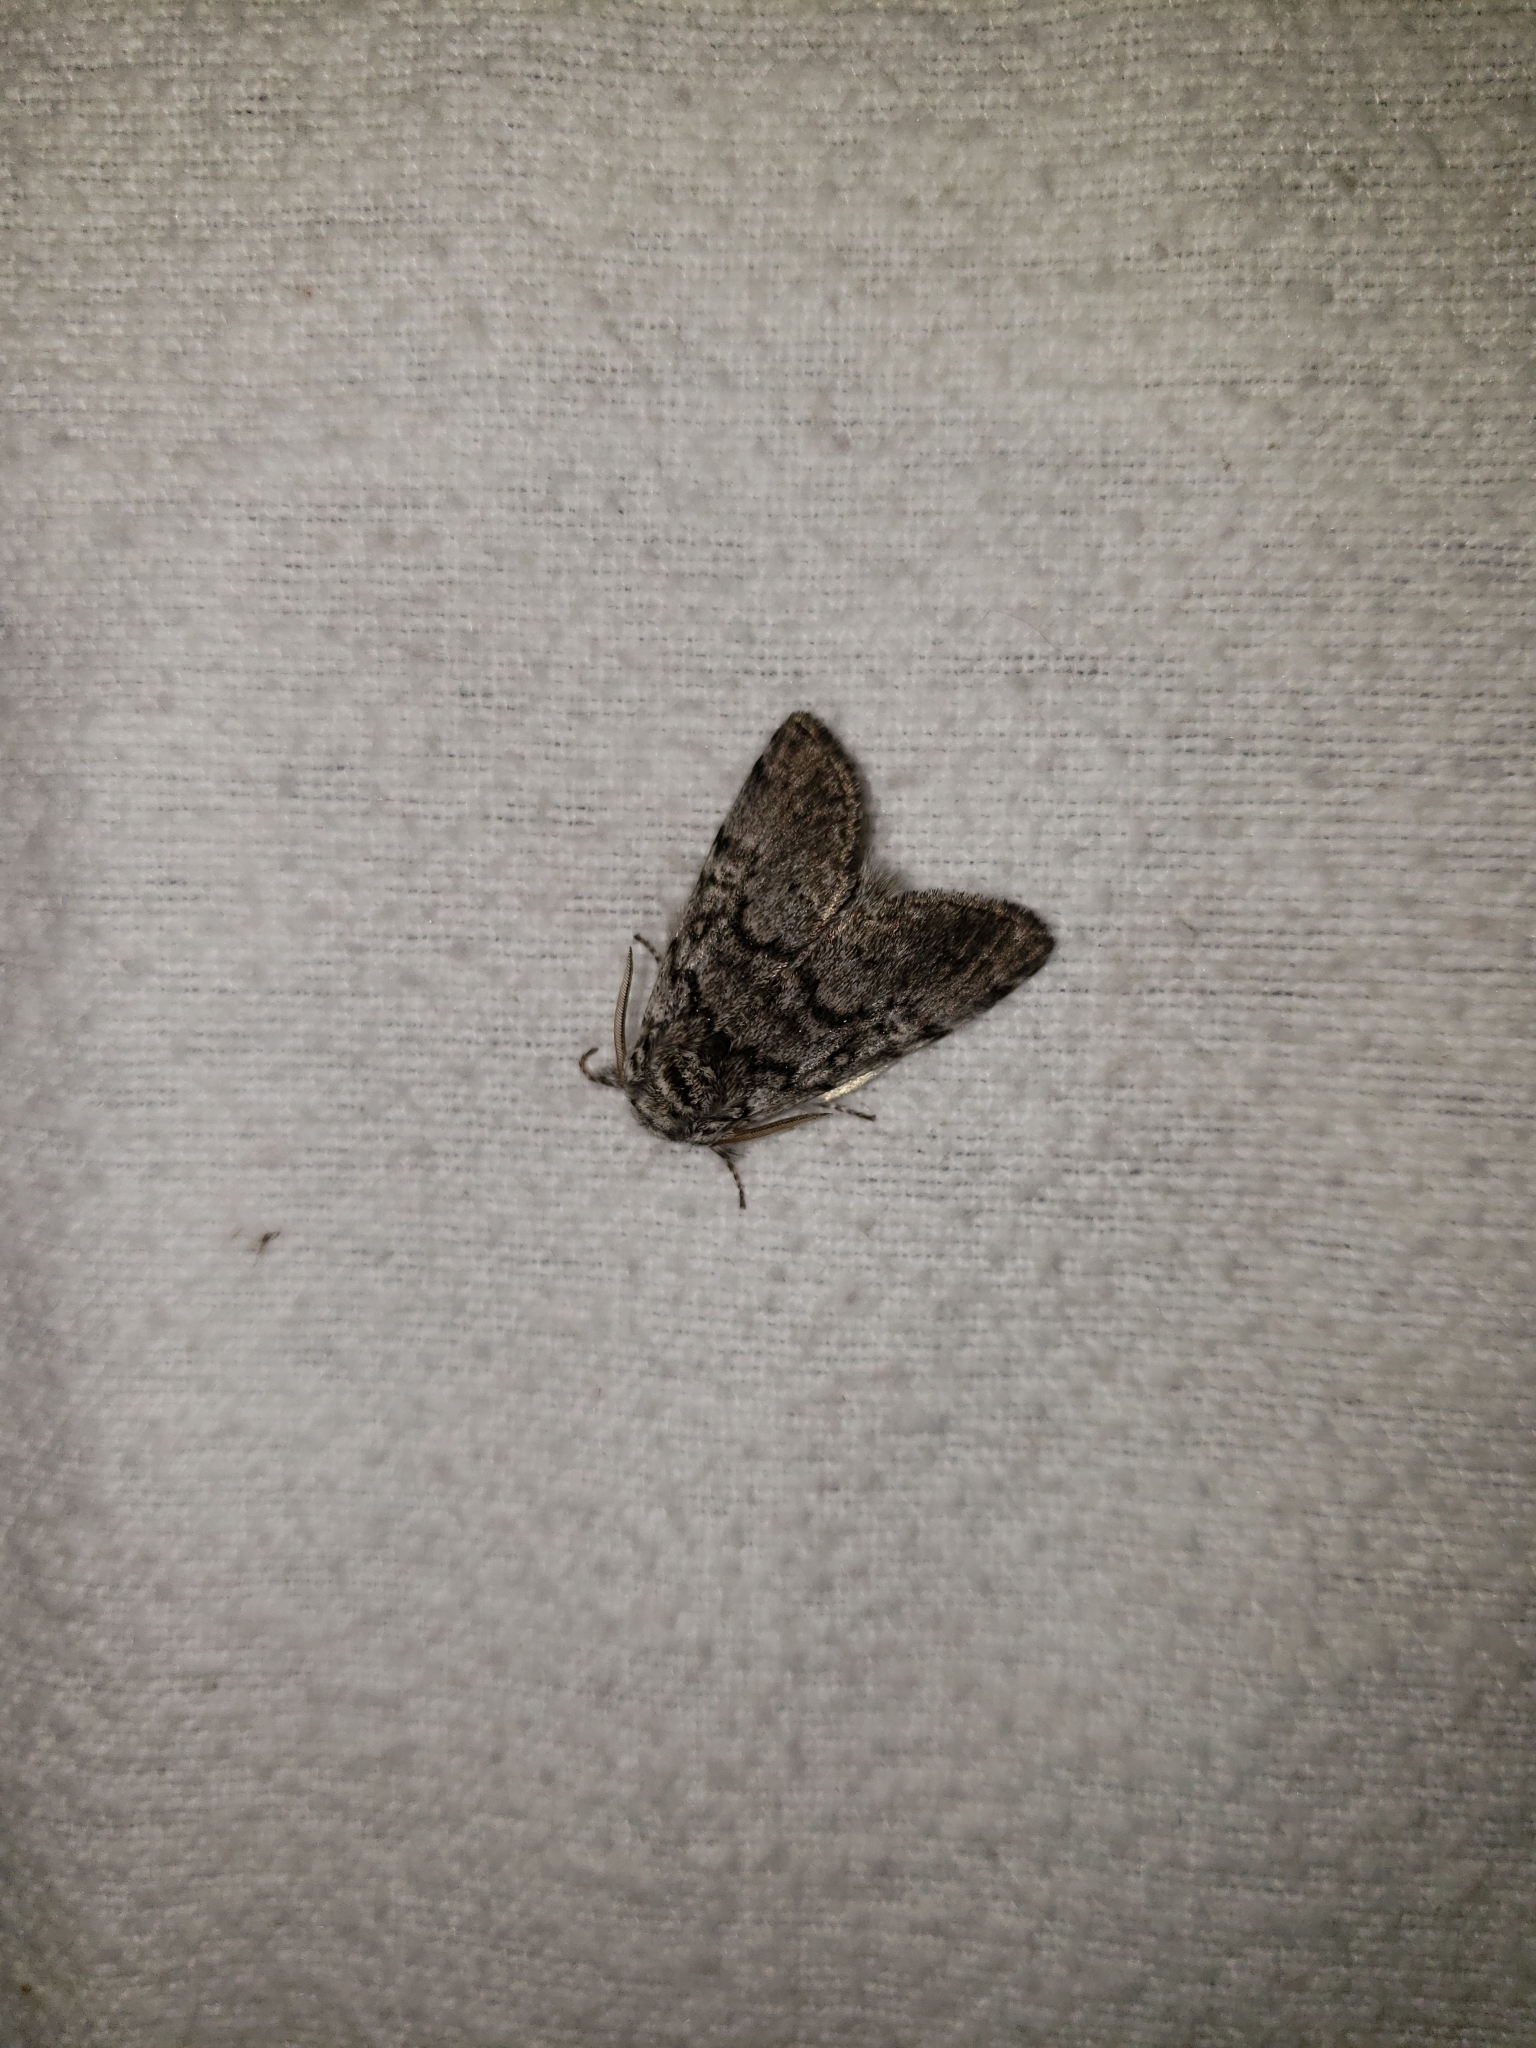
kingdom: Animalia
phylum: Arthropoda
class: Insecta
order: Lepidoptera
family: Noctuidae
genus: Colocasia
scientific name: Colocasia propinquilinea
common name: Close-banded demas
